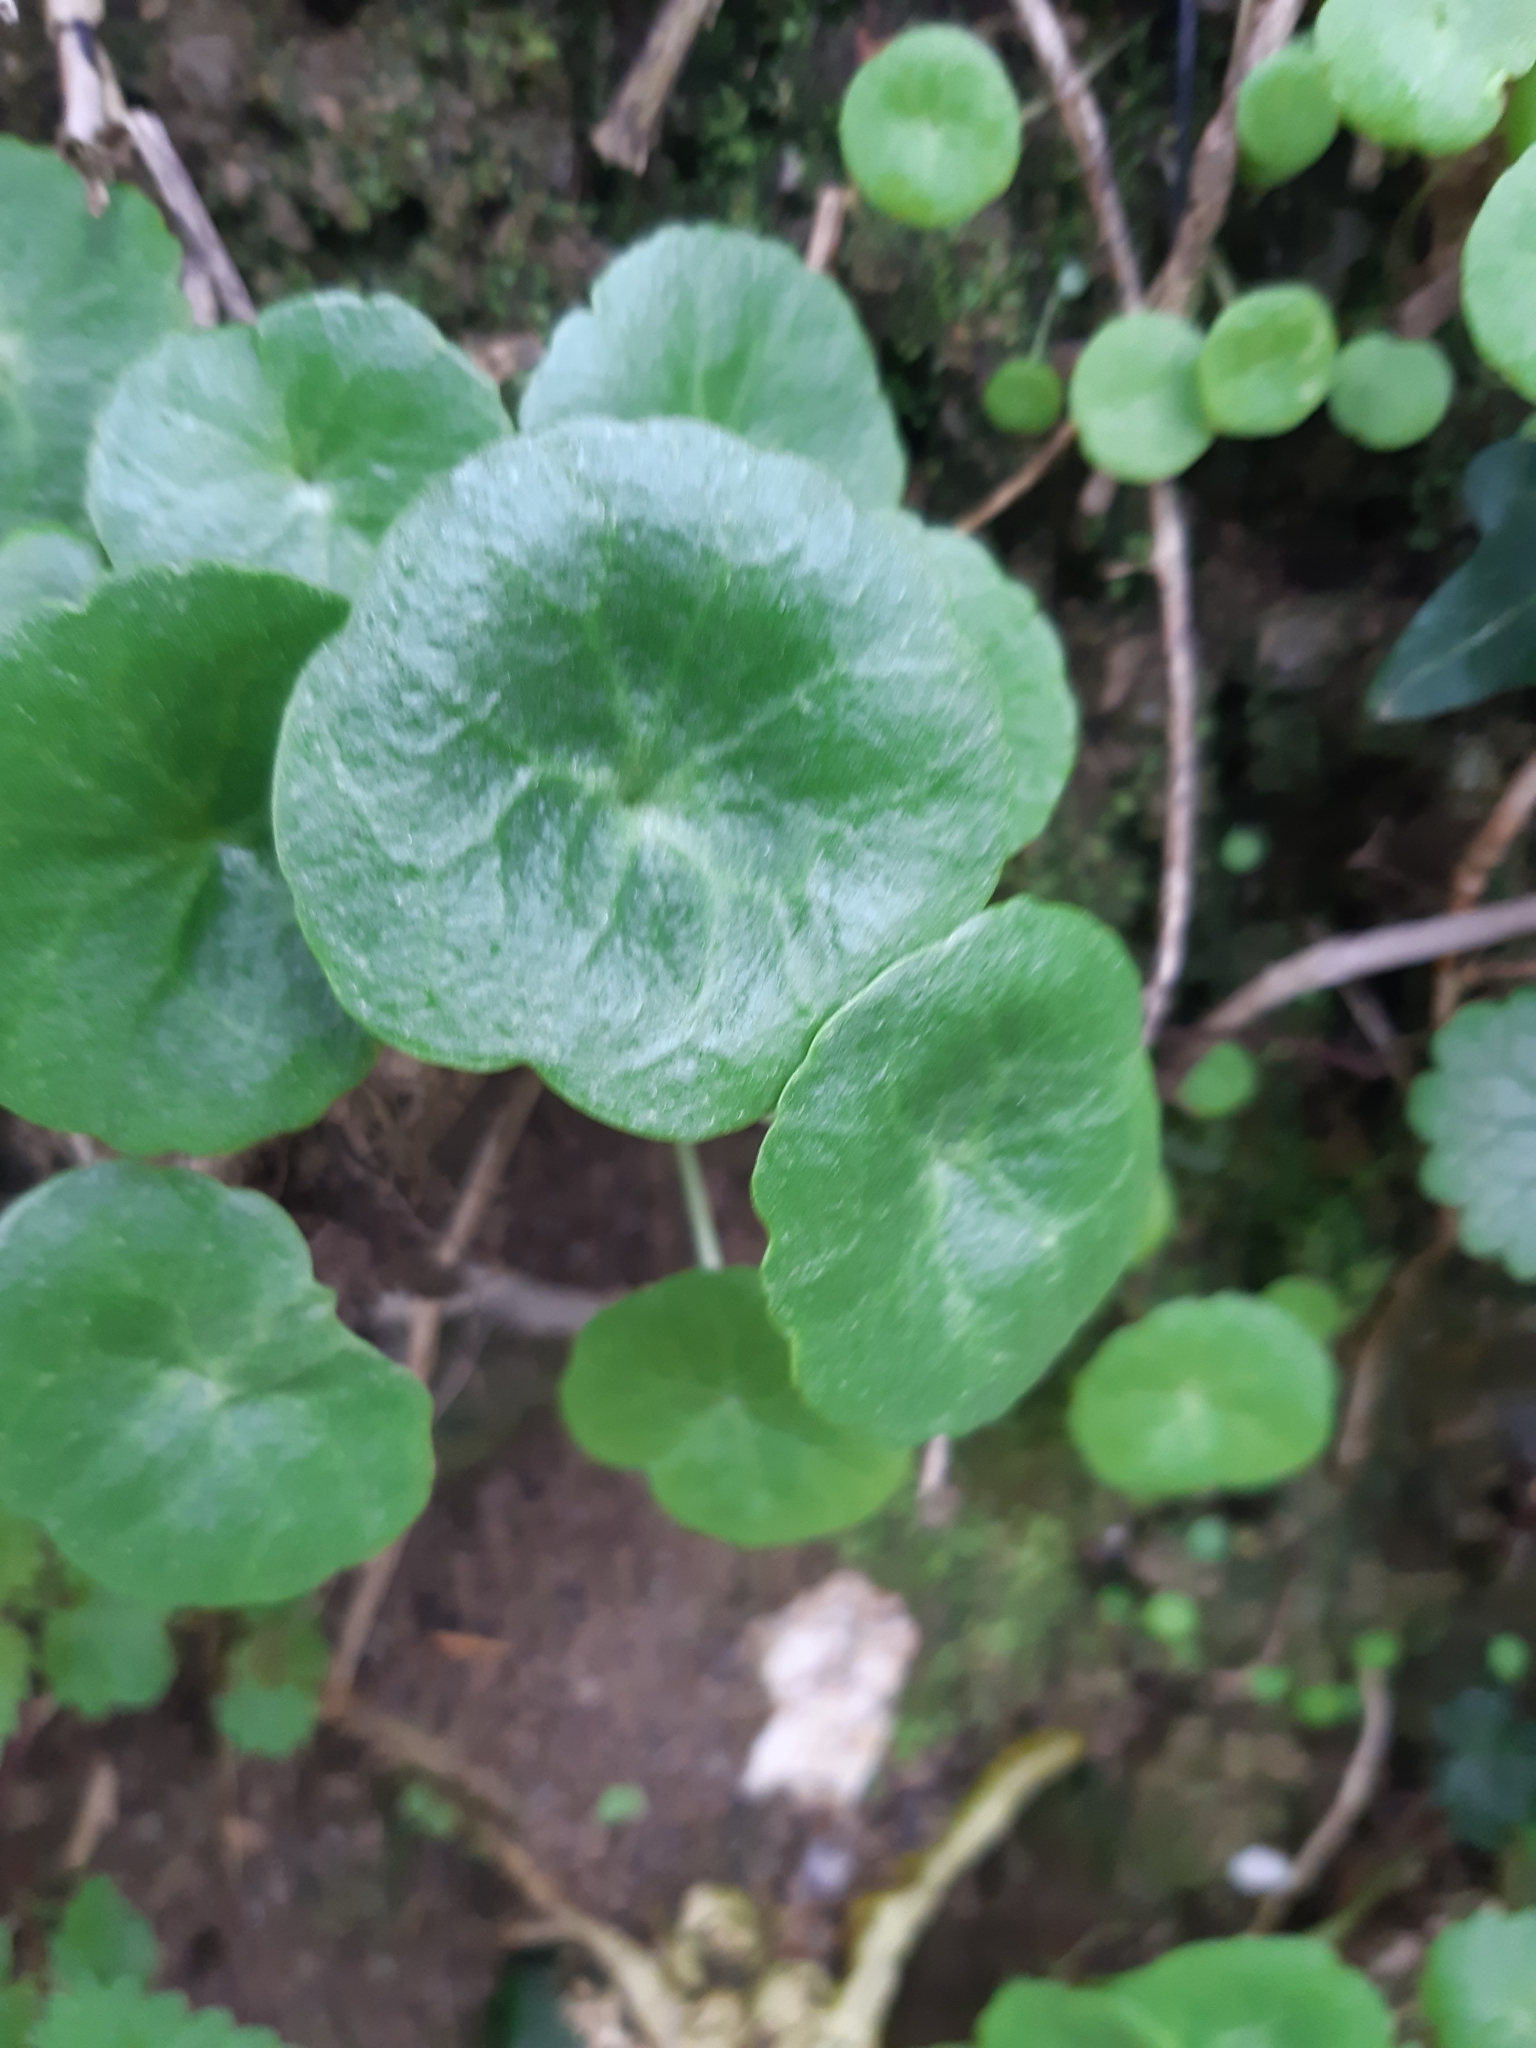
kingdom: Plantae
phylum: Tracheophyta
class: Magnoliopsida
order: Saxifragales
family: Crassulaceae
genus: Umbilicus
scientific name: Umbilicus rupestris
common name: Navelwort
